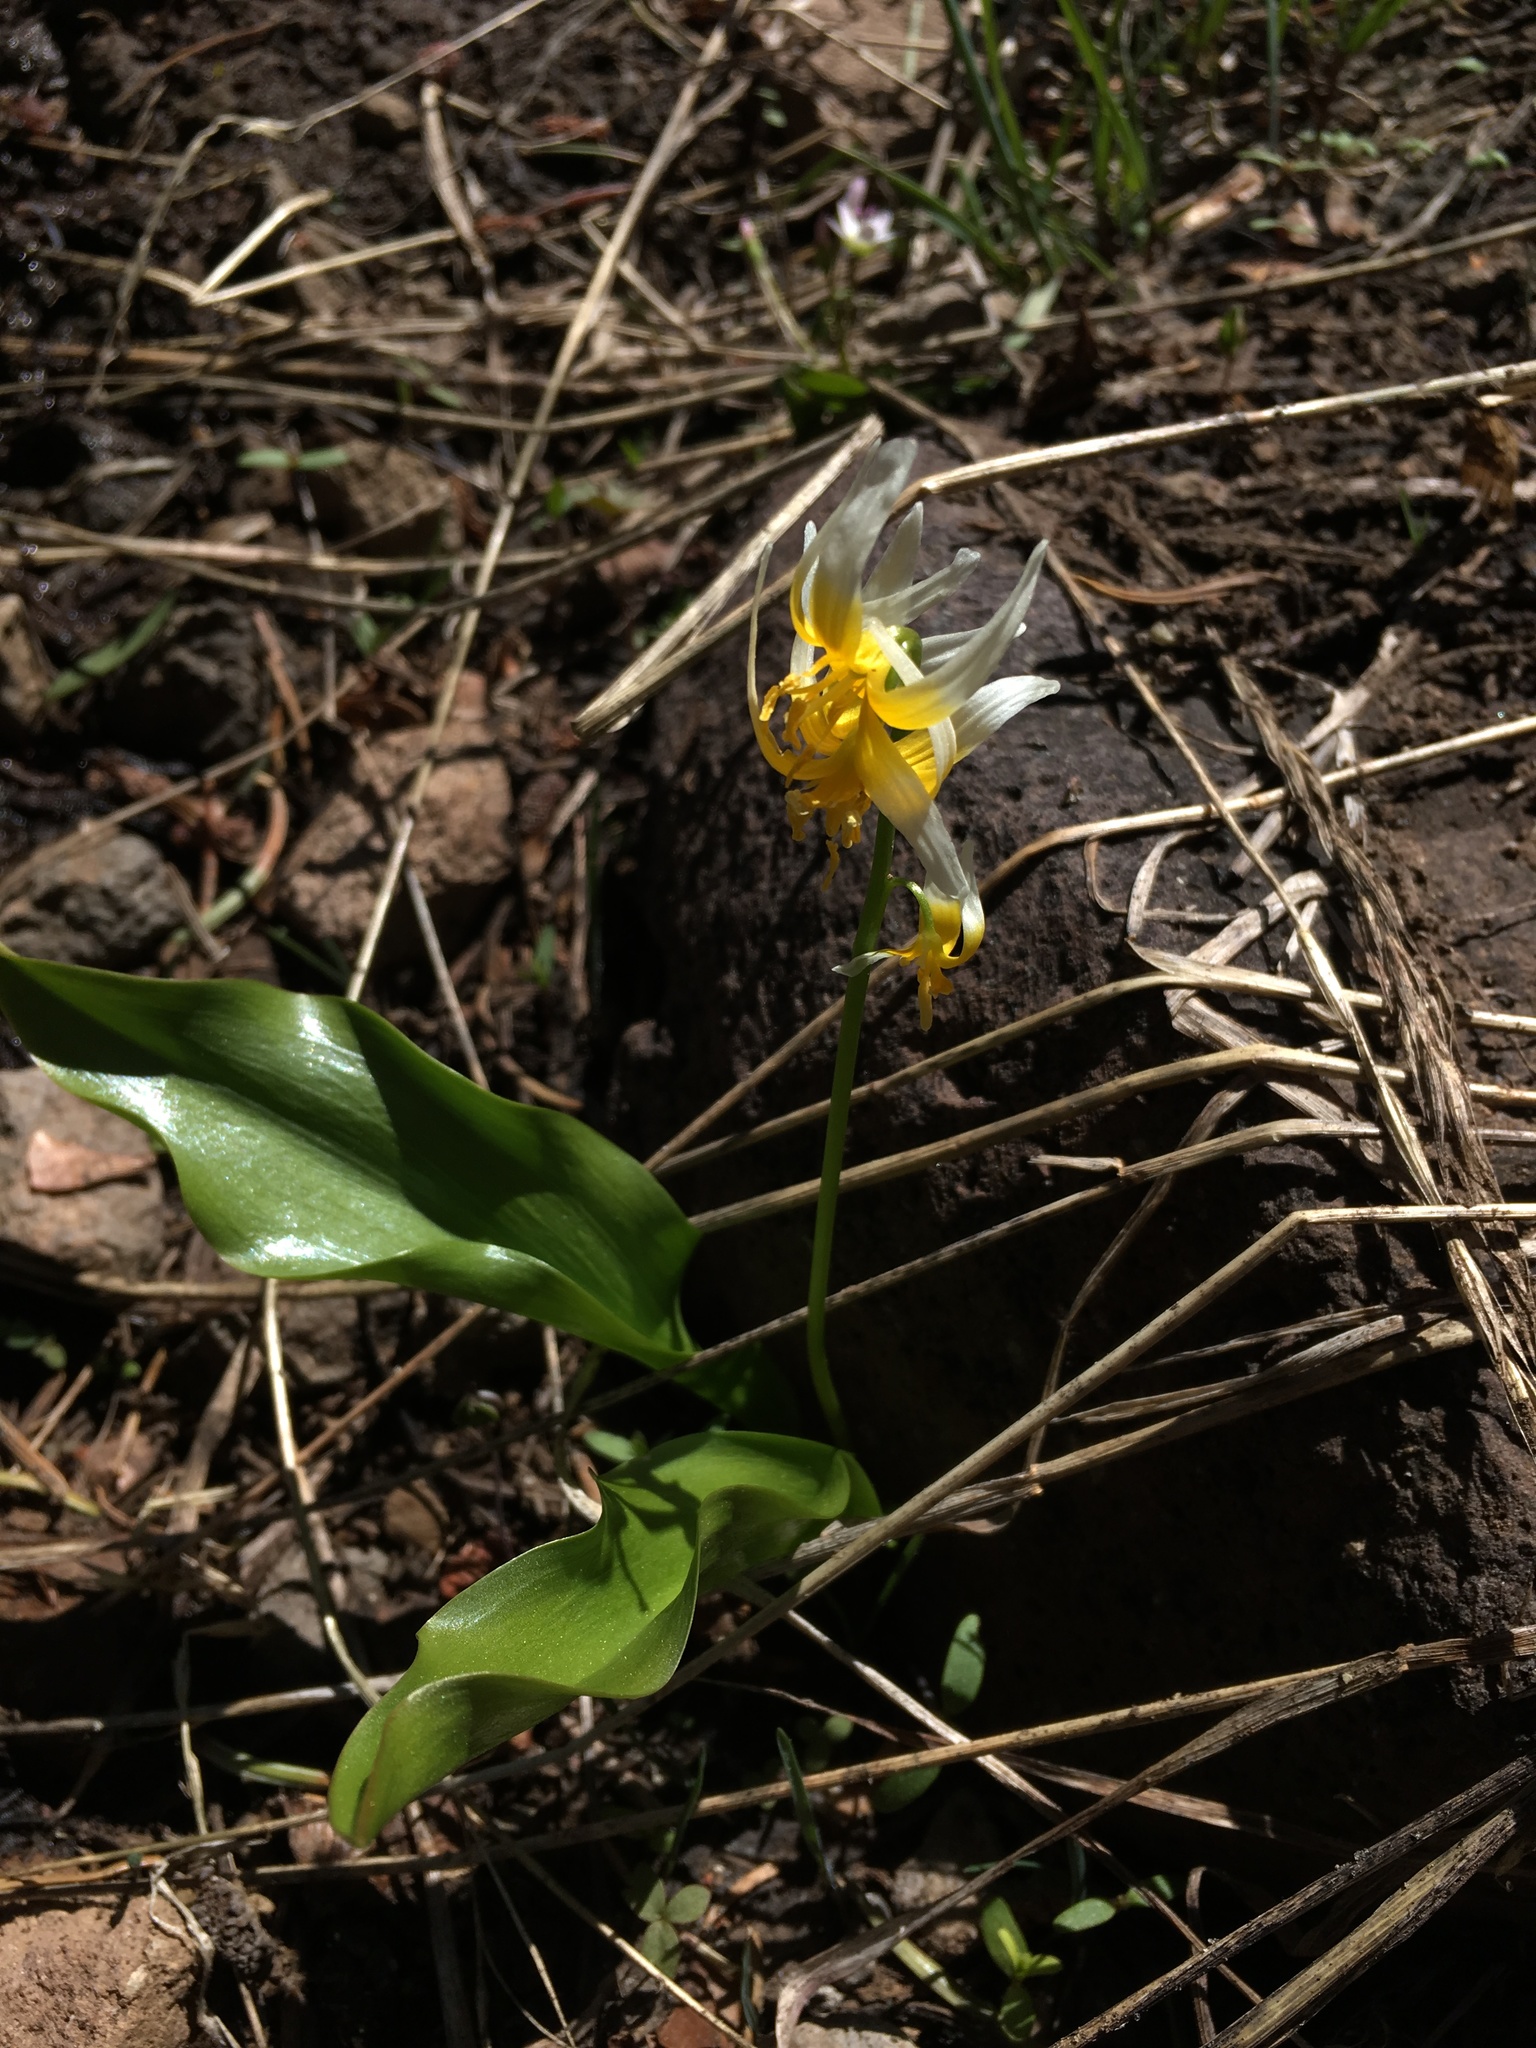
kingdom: Plantae
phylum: Tracheophyta
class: Liliopsida
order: Liliales
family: Liliaceae
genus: Erythronium
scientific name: Erythronium purpurascens
